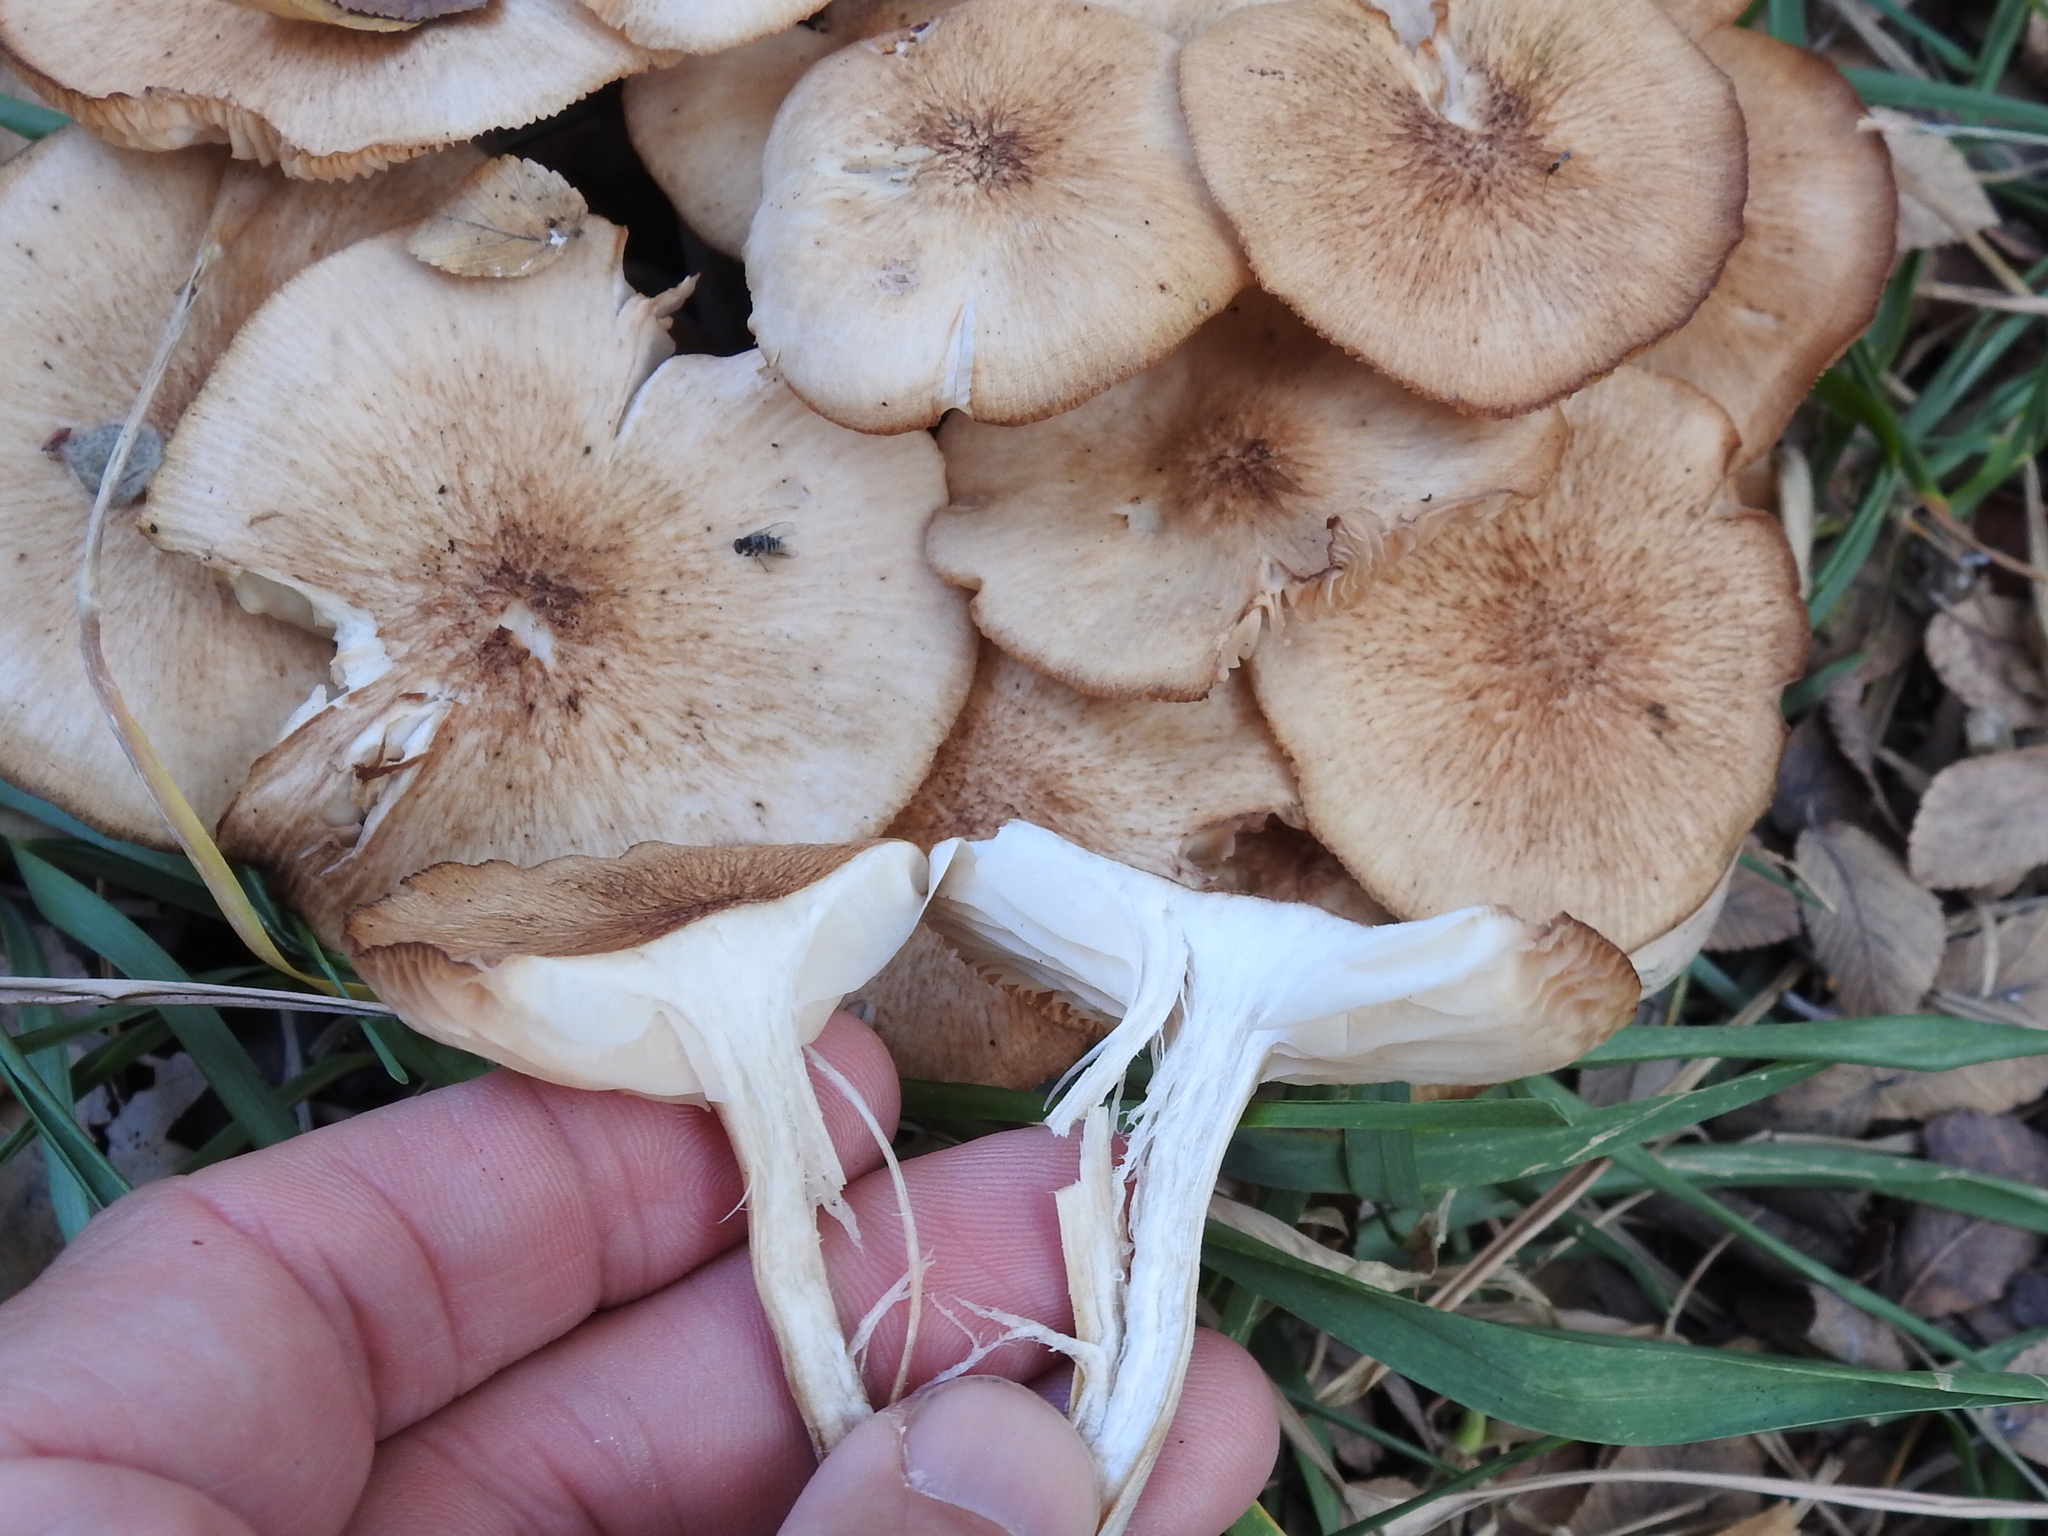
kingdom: Fungi
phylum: Basidiomycota
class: Agaricomycetes
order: Agaricales
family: Physalacriaceae
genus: Desarmillaria
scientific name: Desarmillaria caespitosa
